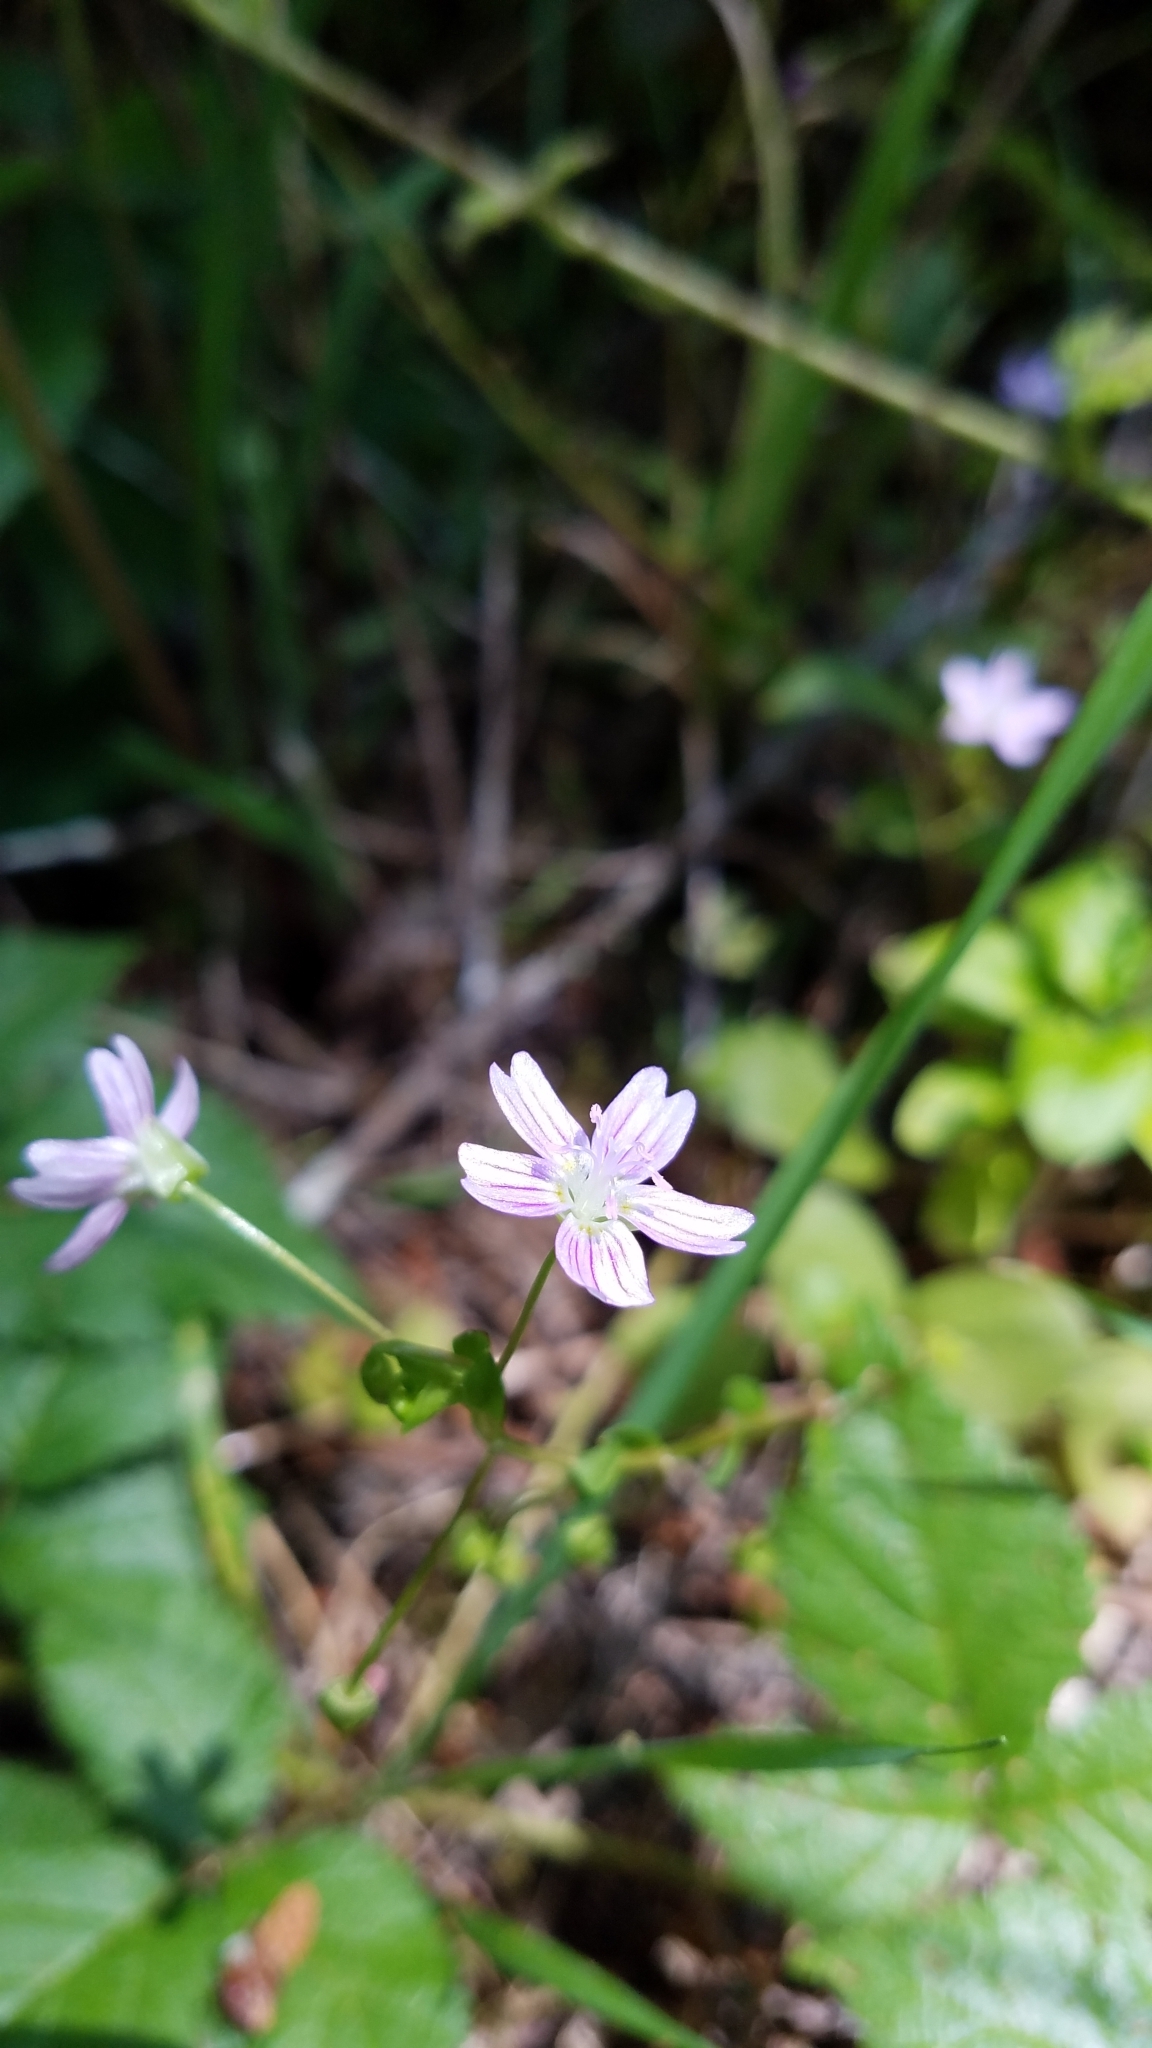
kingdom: Plantae
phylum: Tracheophyta
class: Magnoliopsida
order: Caryophyllales
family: Montiaceae
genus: Claytonia
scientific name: Claytonia sibirica
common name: Pink purslane
